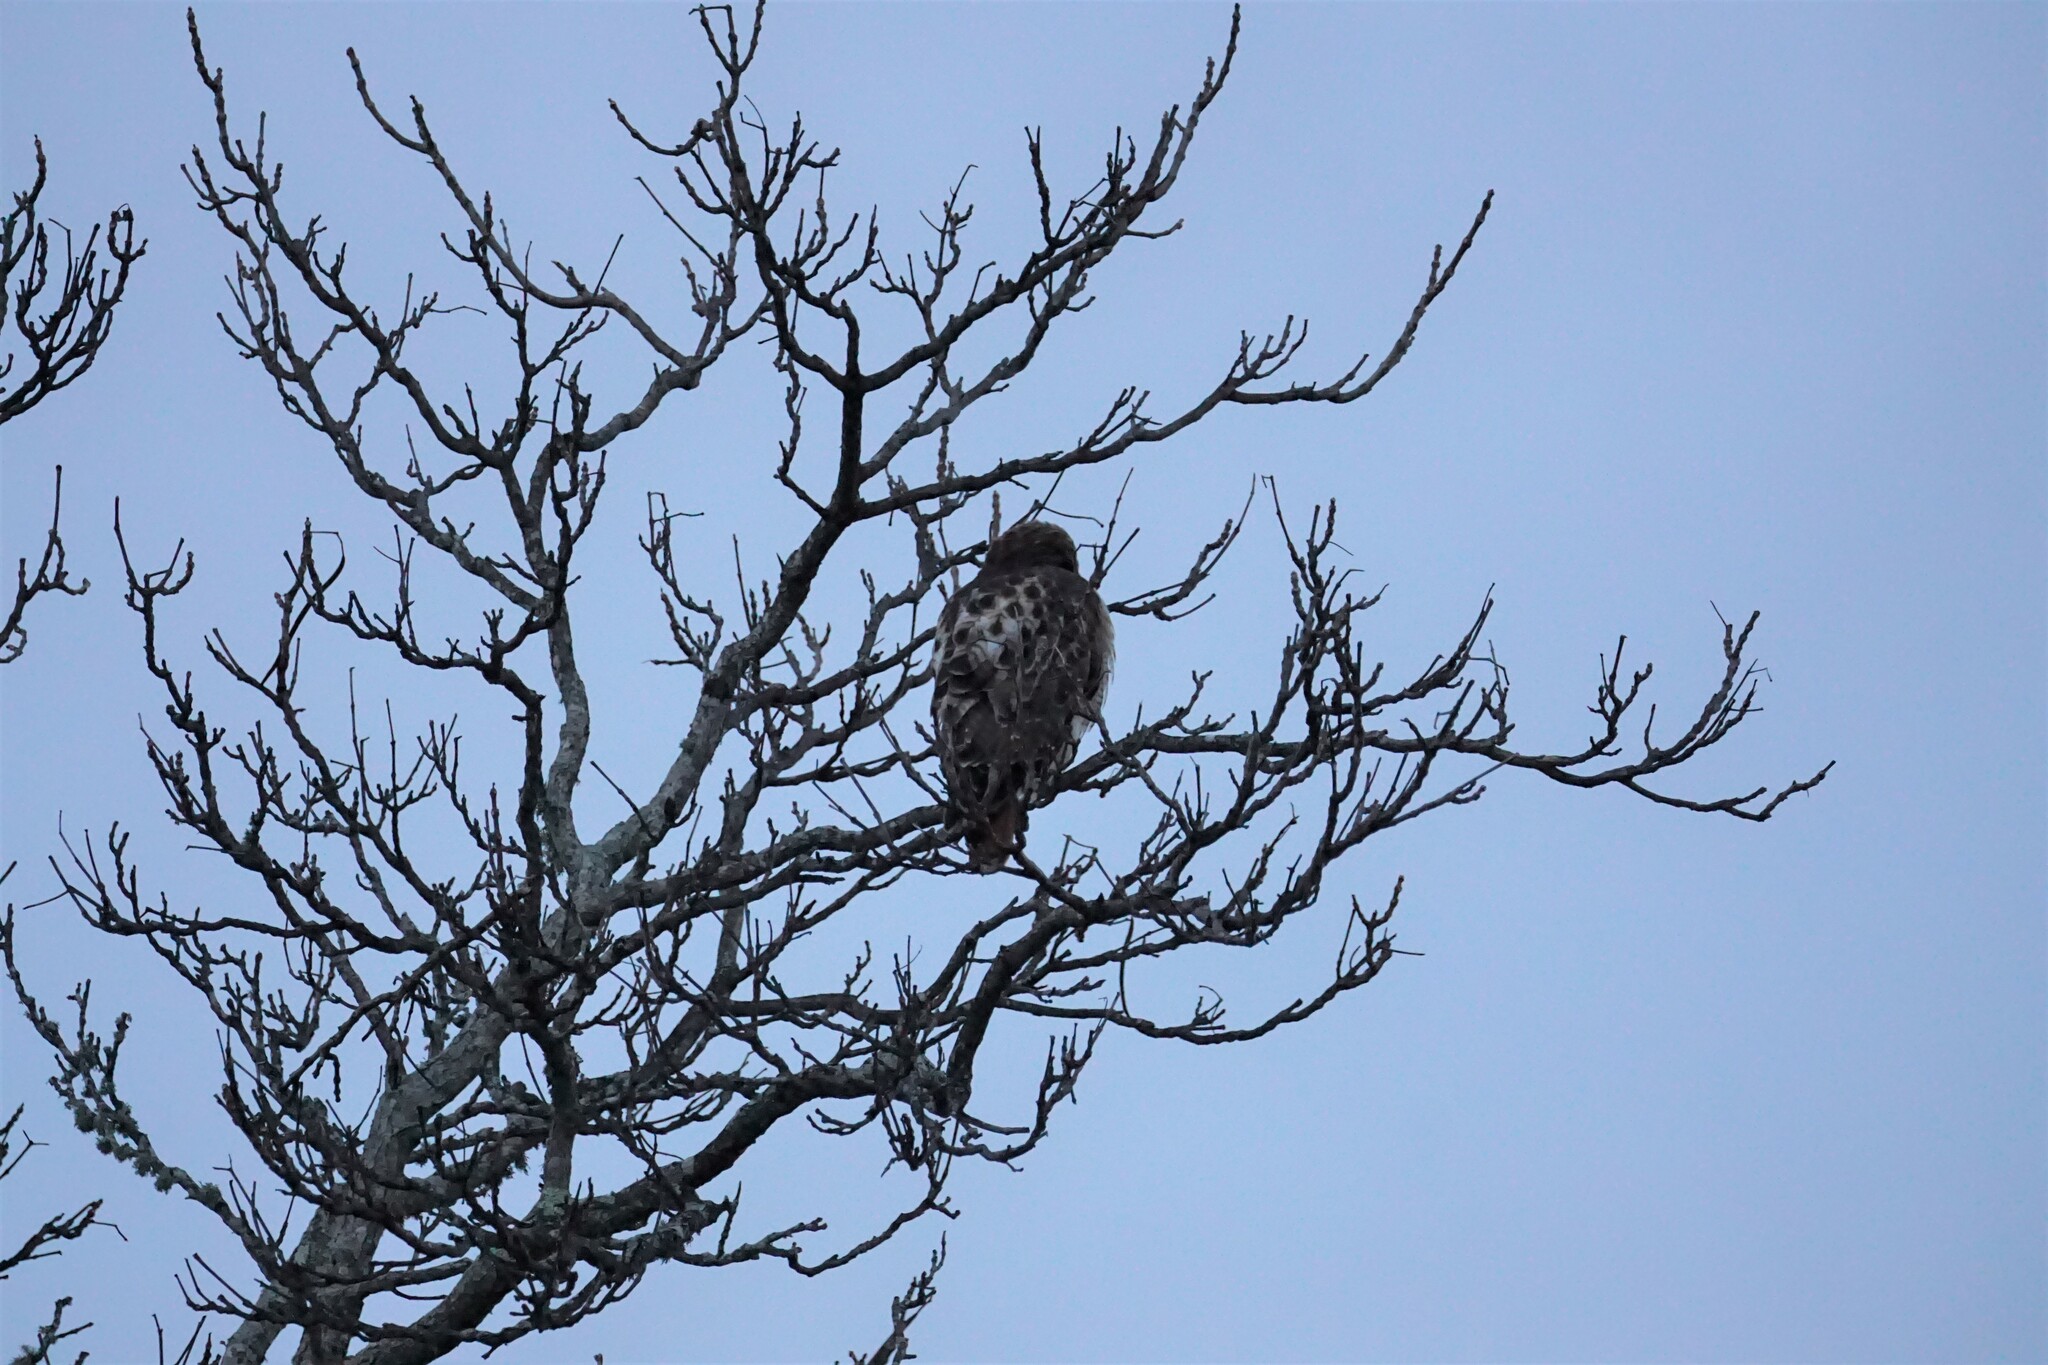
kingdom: Animalia
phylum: Chordata
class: Aves
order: Accipitriformes
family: Accipitridae
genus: Buteo
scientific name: Buteo jamaicensis
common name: Red-tailed hawk
